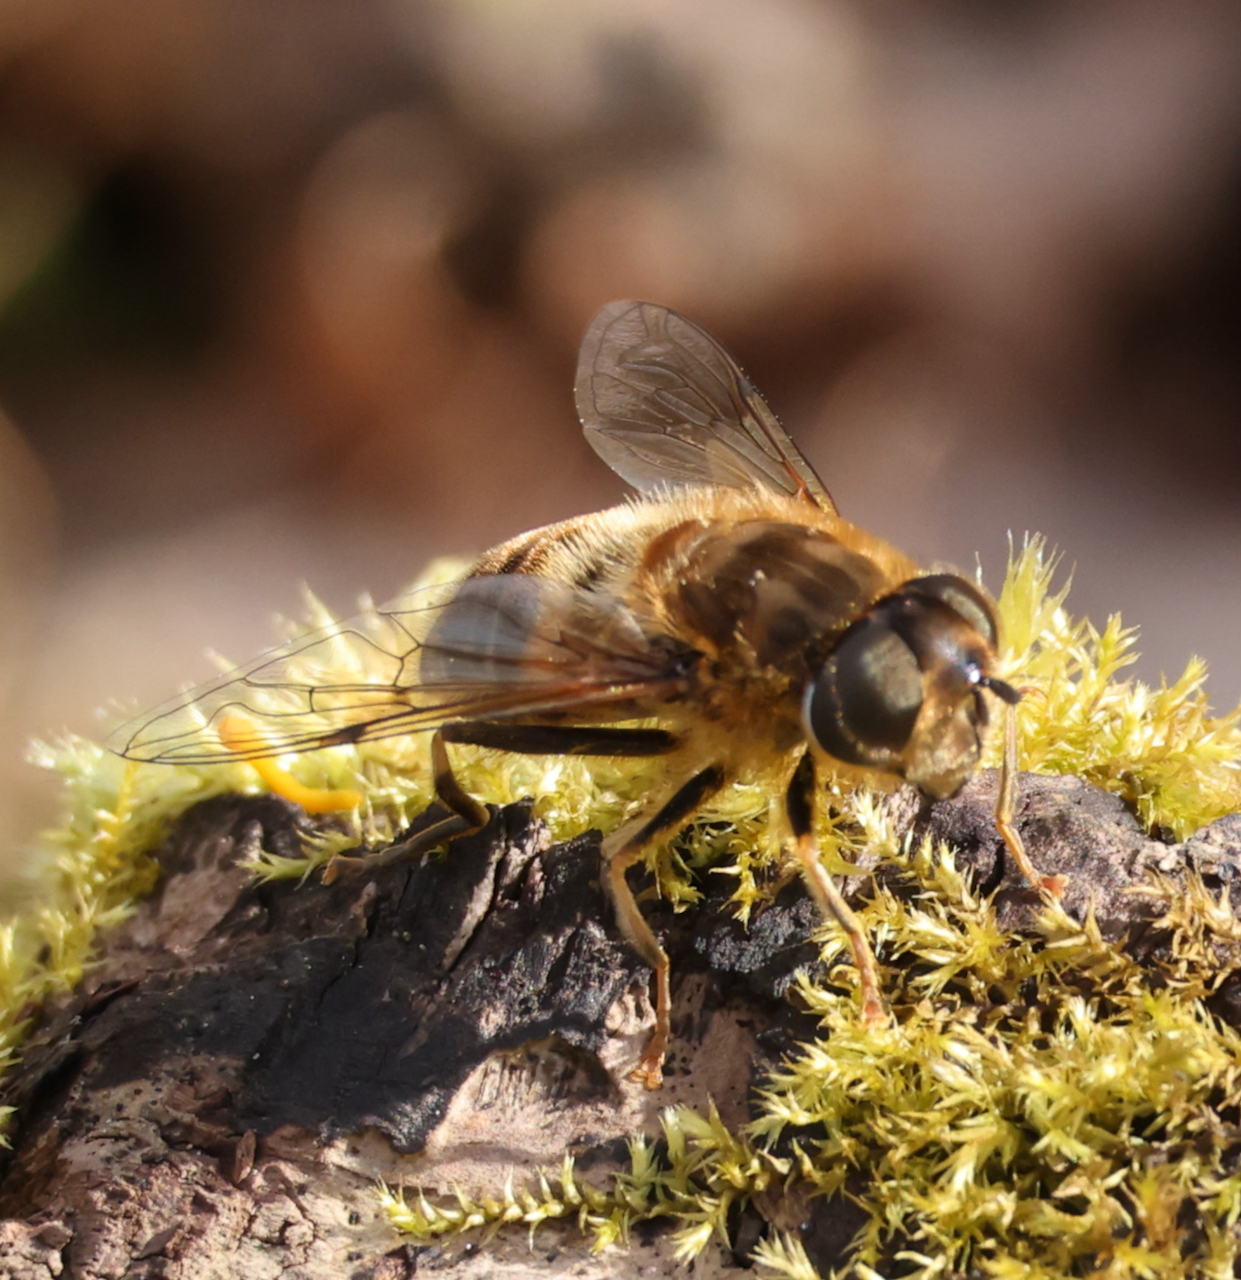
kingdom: Animalia
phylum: Arthropoda
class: Insecta
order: Diptera
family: Syrphidae
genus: Eristalis
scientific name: Eristalis pertinax
